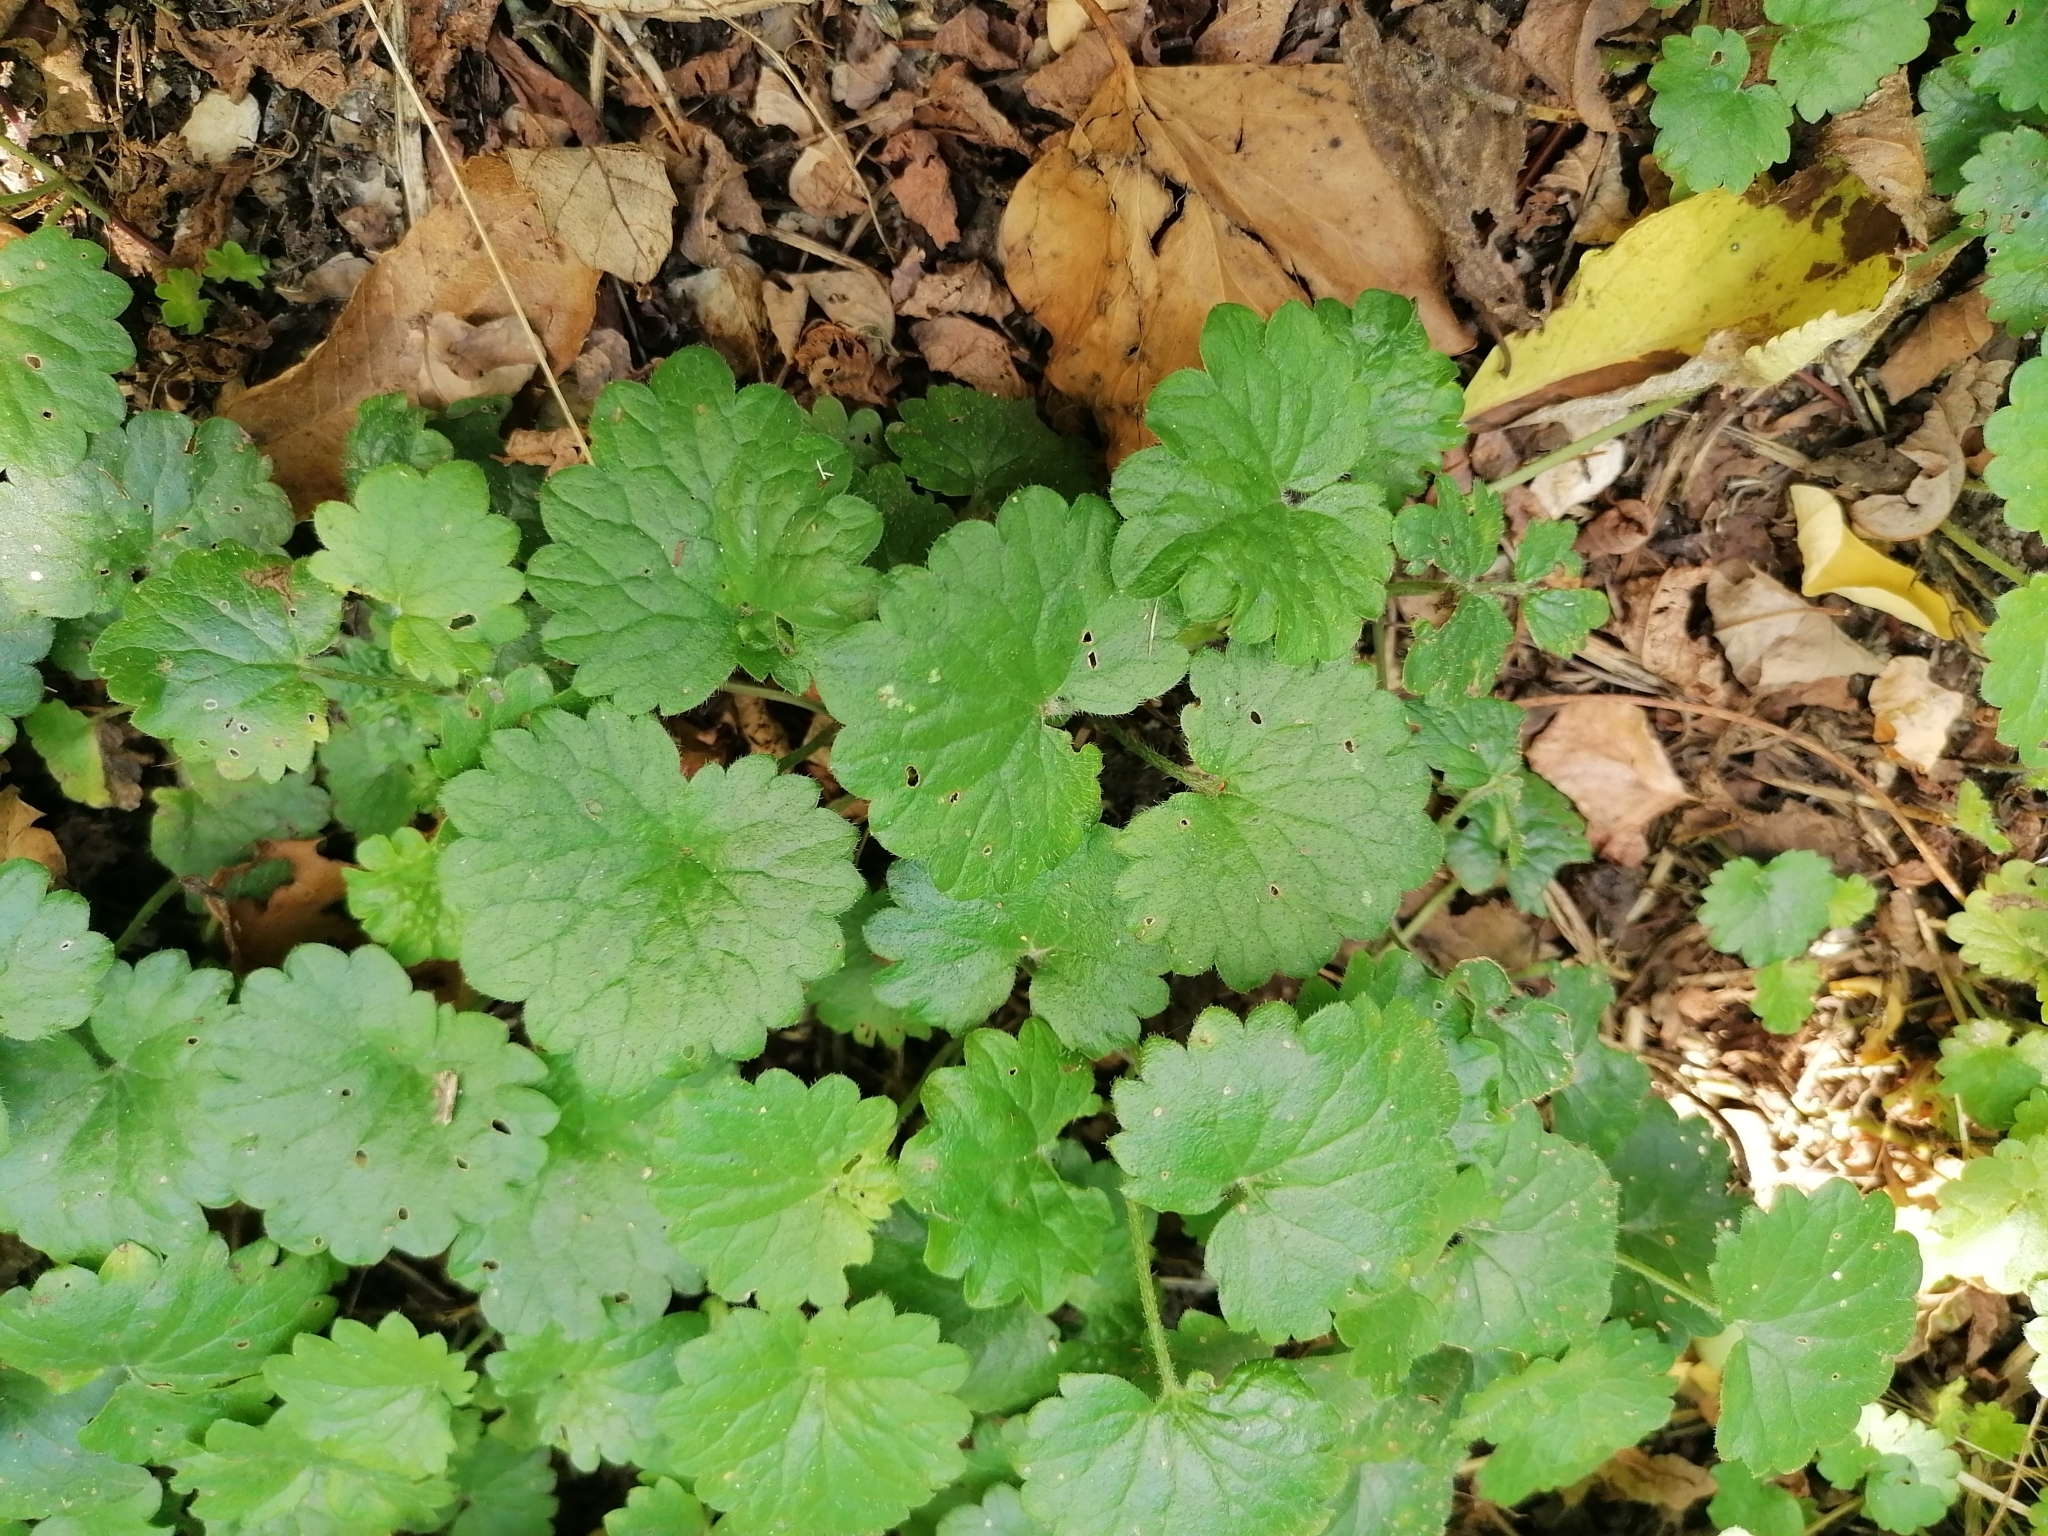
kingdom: Plantae
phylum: Tracheophyta
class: Magnoliopsida
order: Lamiales
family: Lamiaceae
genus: Glechoma
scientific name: Glechoma hederacea
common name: Ground ivy
